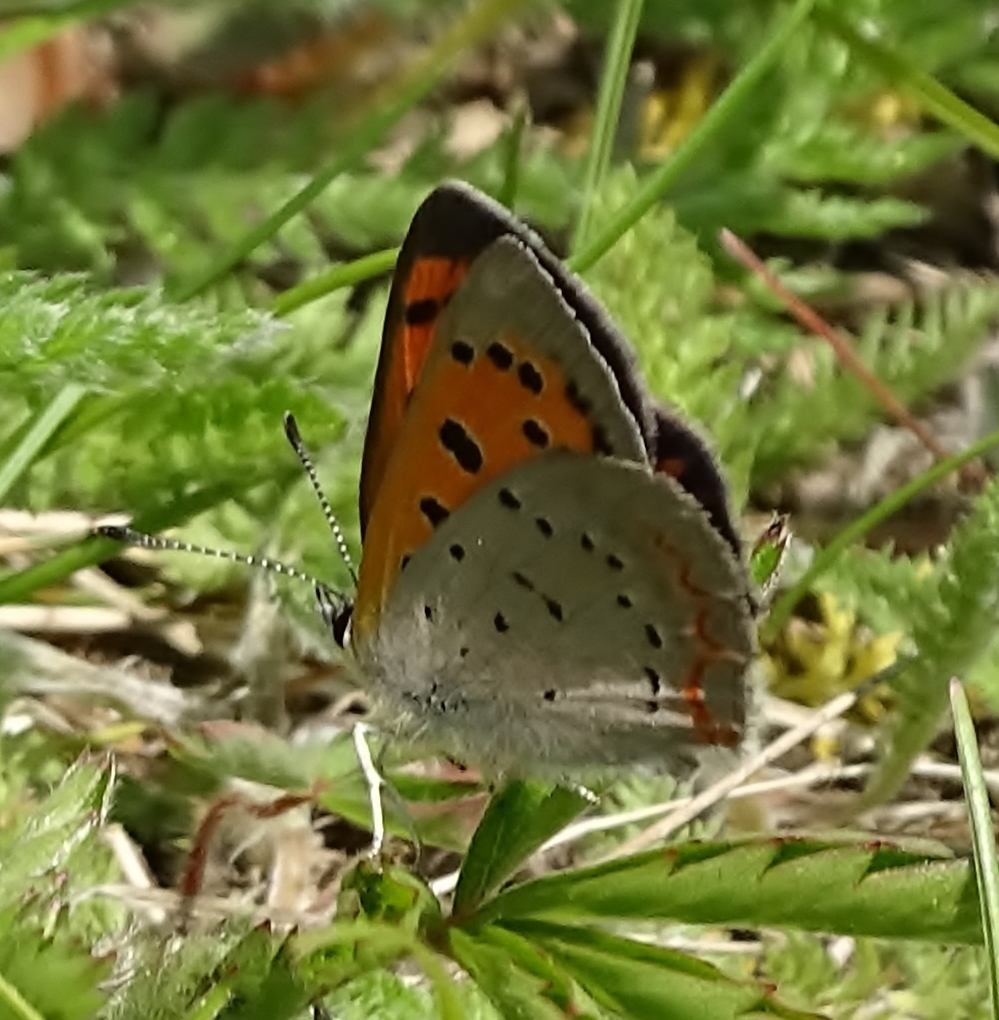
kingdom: Animalia
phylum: Arthropoda
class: Insecta
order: Lepidoptera
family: Lycaenidae
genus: Lycaena
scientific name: Lycaena hypophlaeas
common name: American copper
